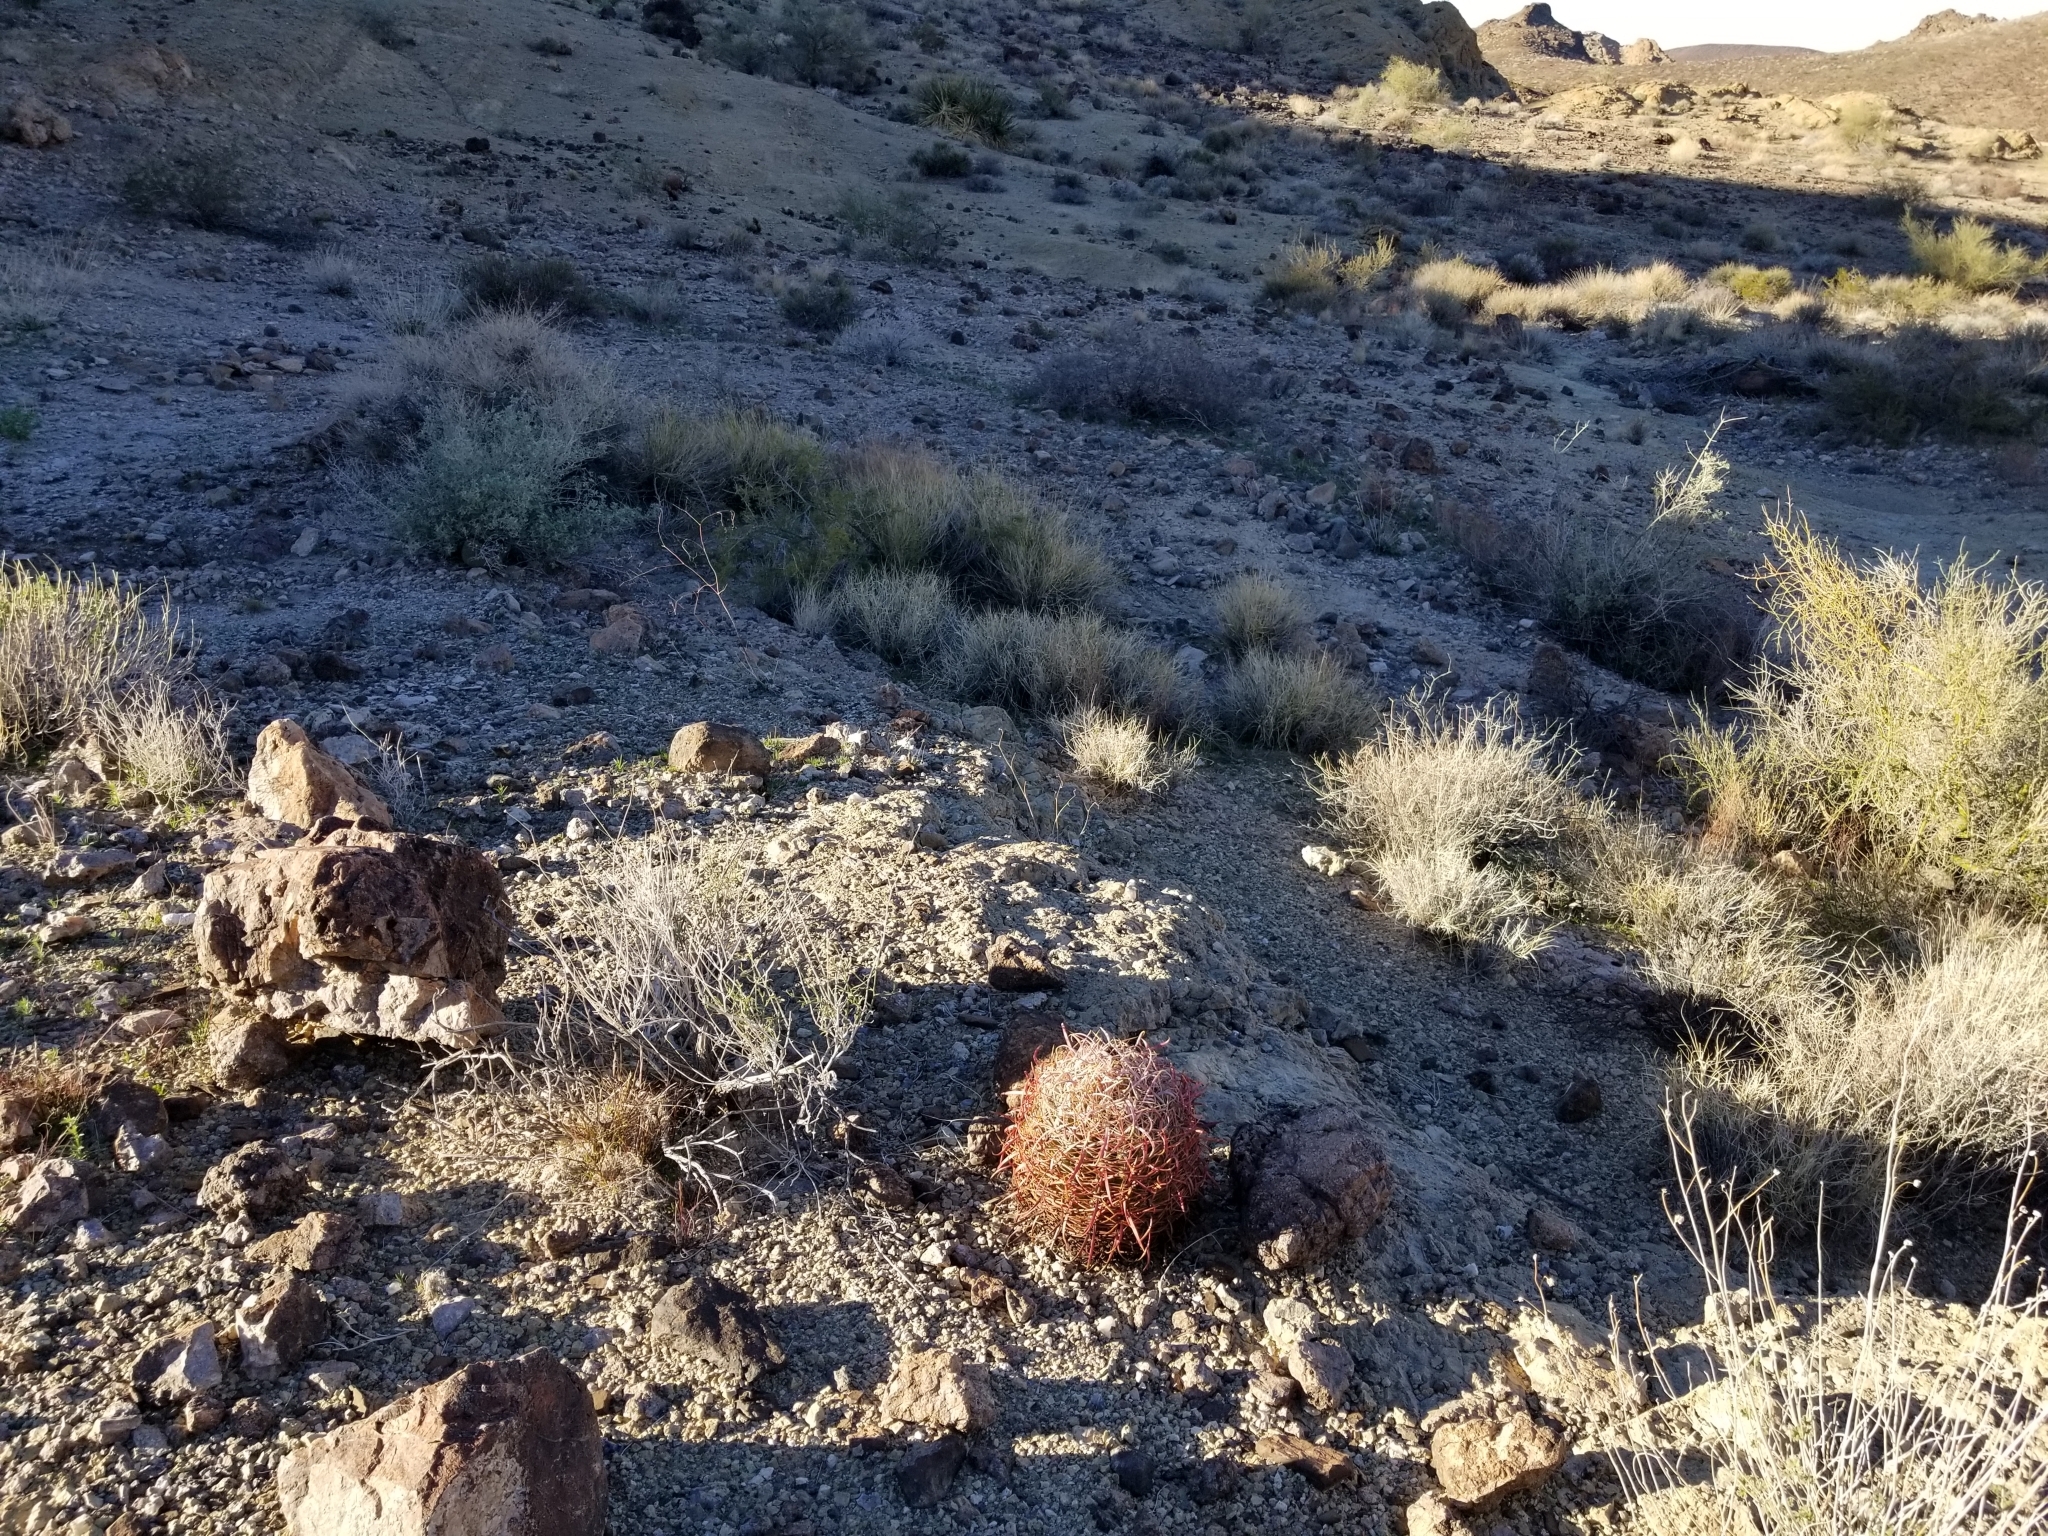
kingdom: Plantae
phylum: Tracheophyta
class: Magnoliopsida
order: Caryophyllales
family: Cactaceae
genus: Ferocactus
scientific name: Ferocactus cylindraceus
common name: California barrel cactus
